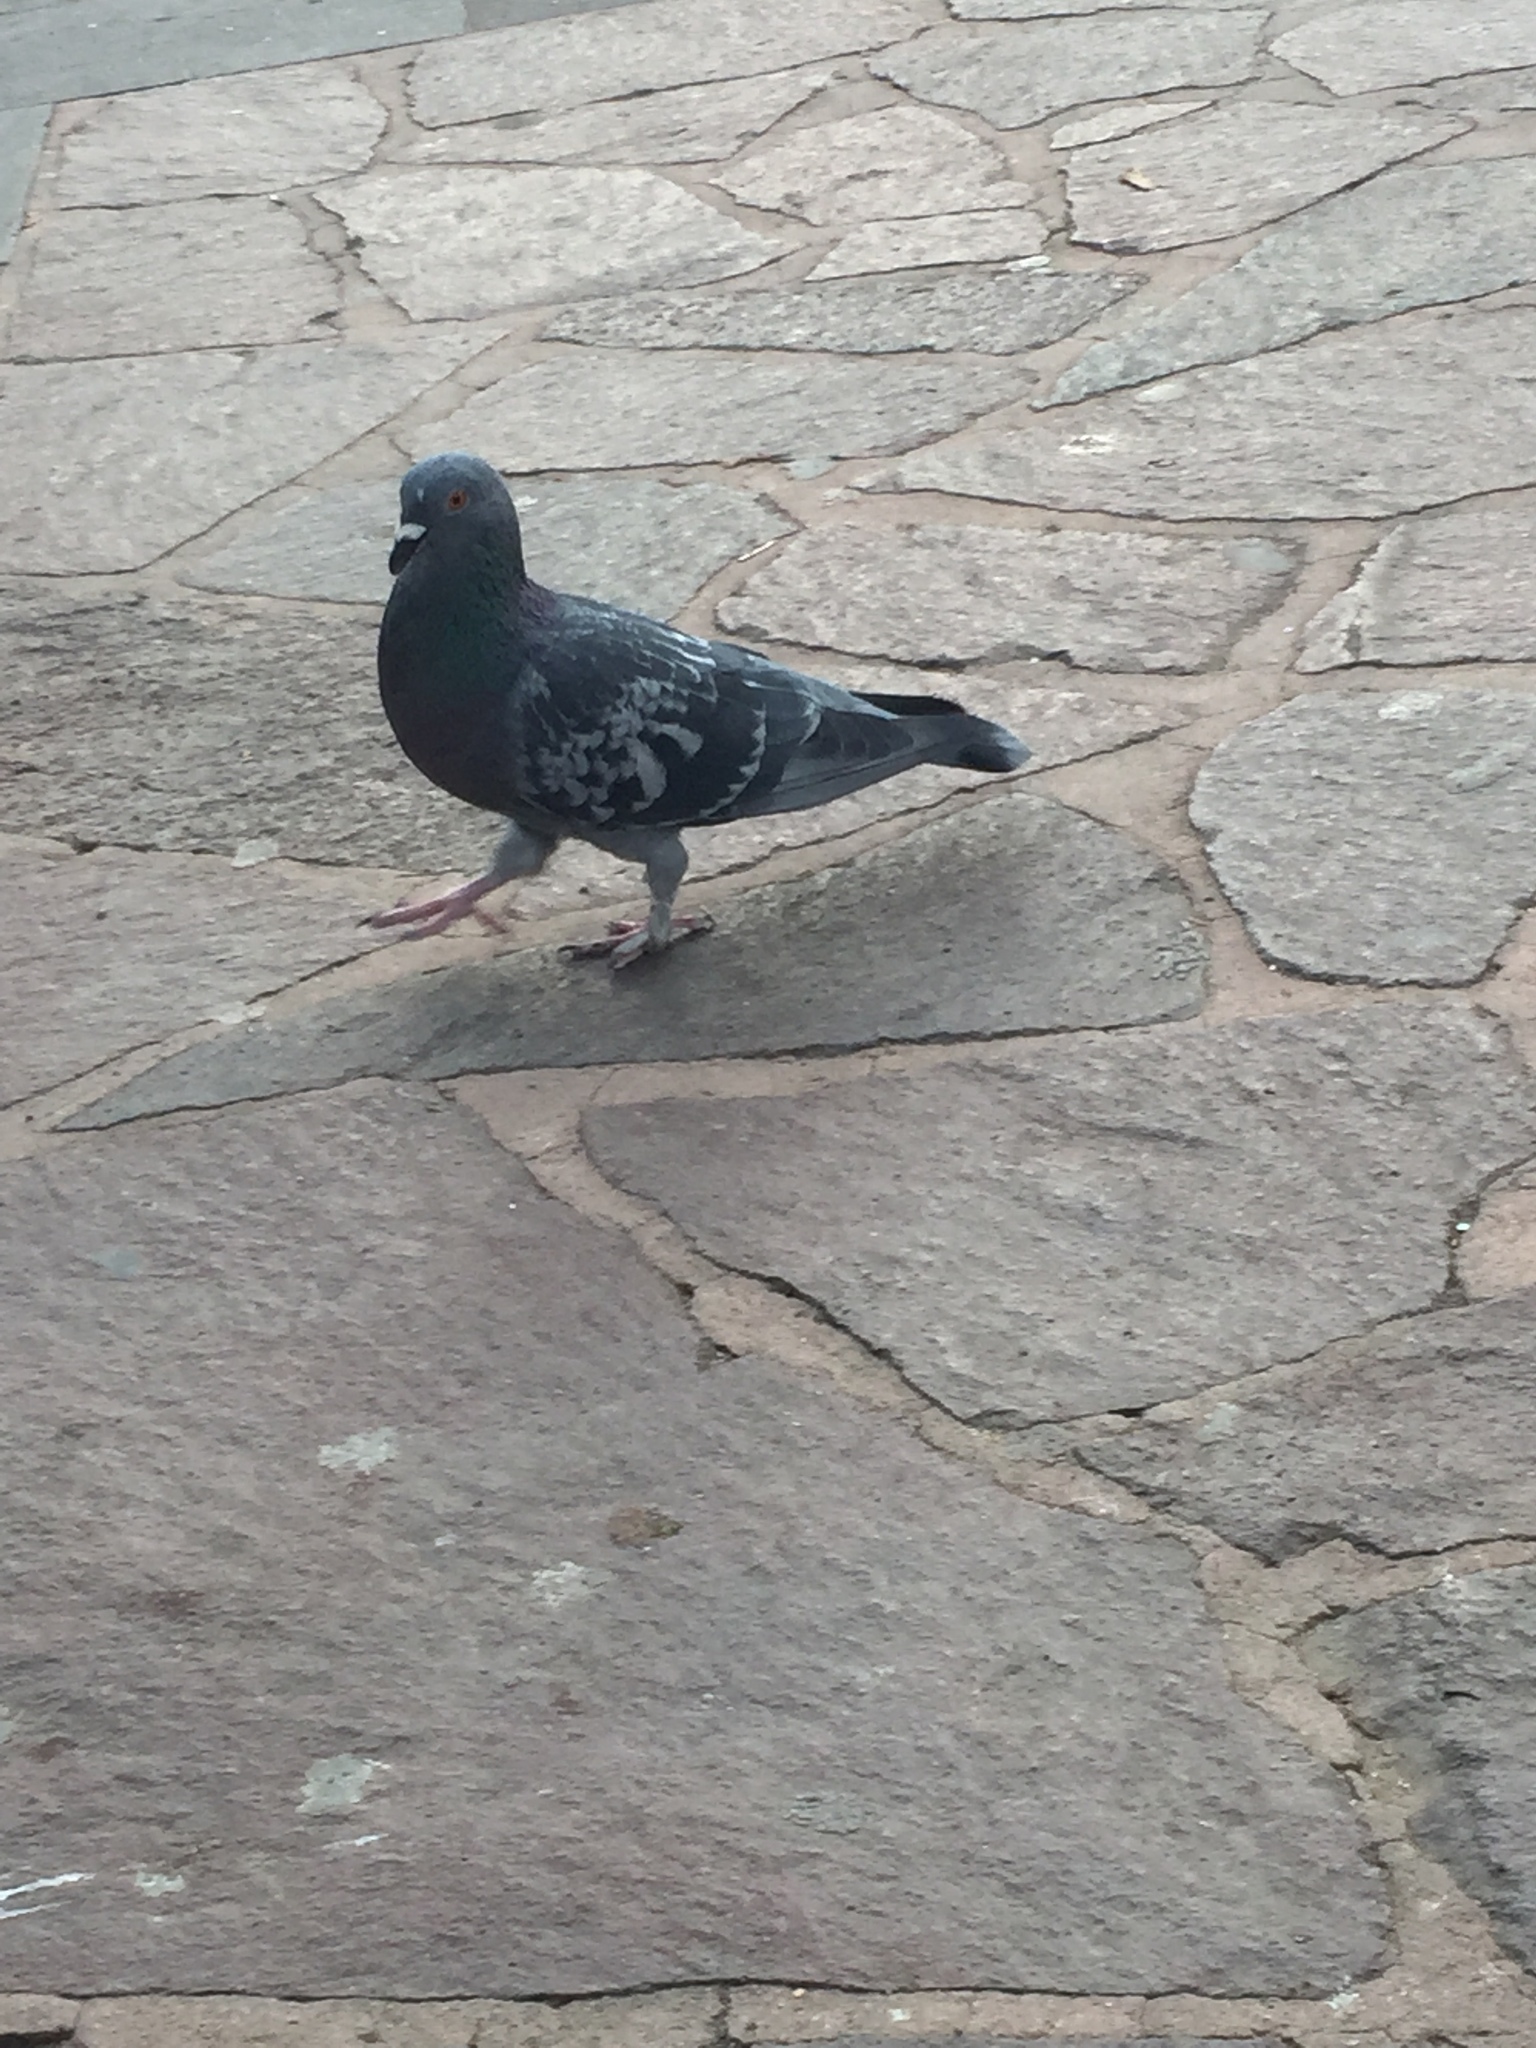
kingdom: Animalia
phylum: Chordata
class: Aves
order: Columbiformes
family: Columbidae
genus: Columba
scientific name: Columba livia
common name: Rock pigeon
